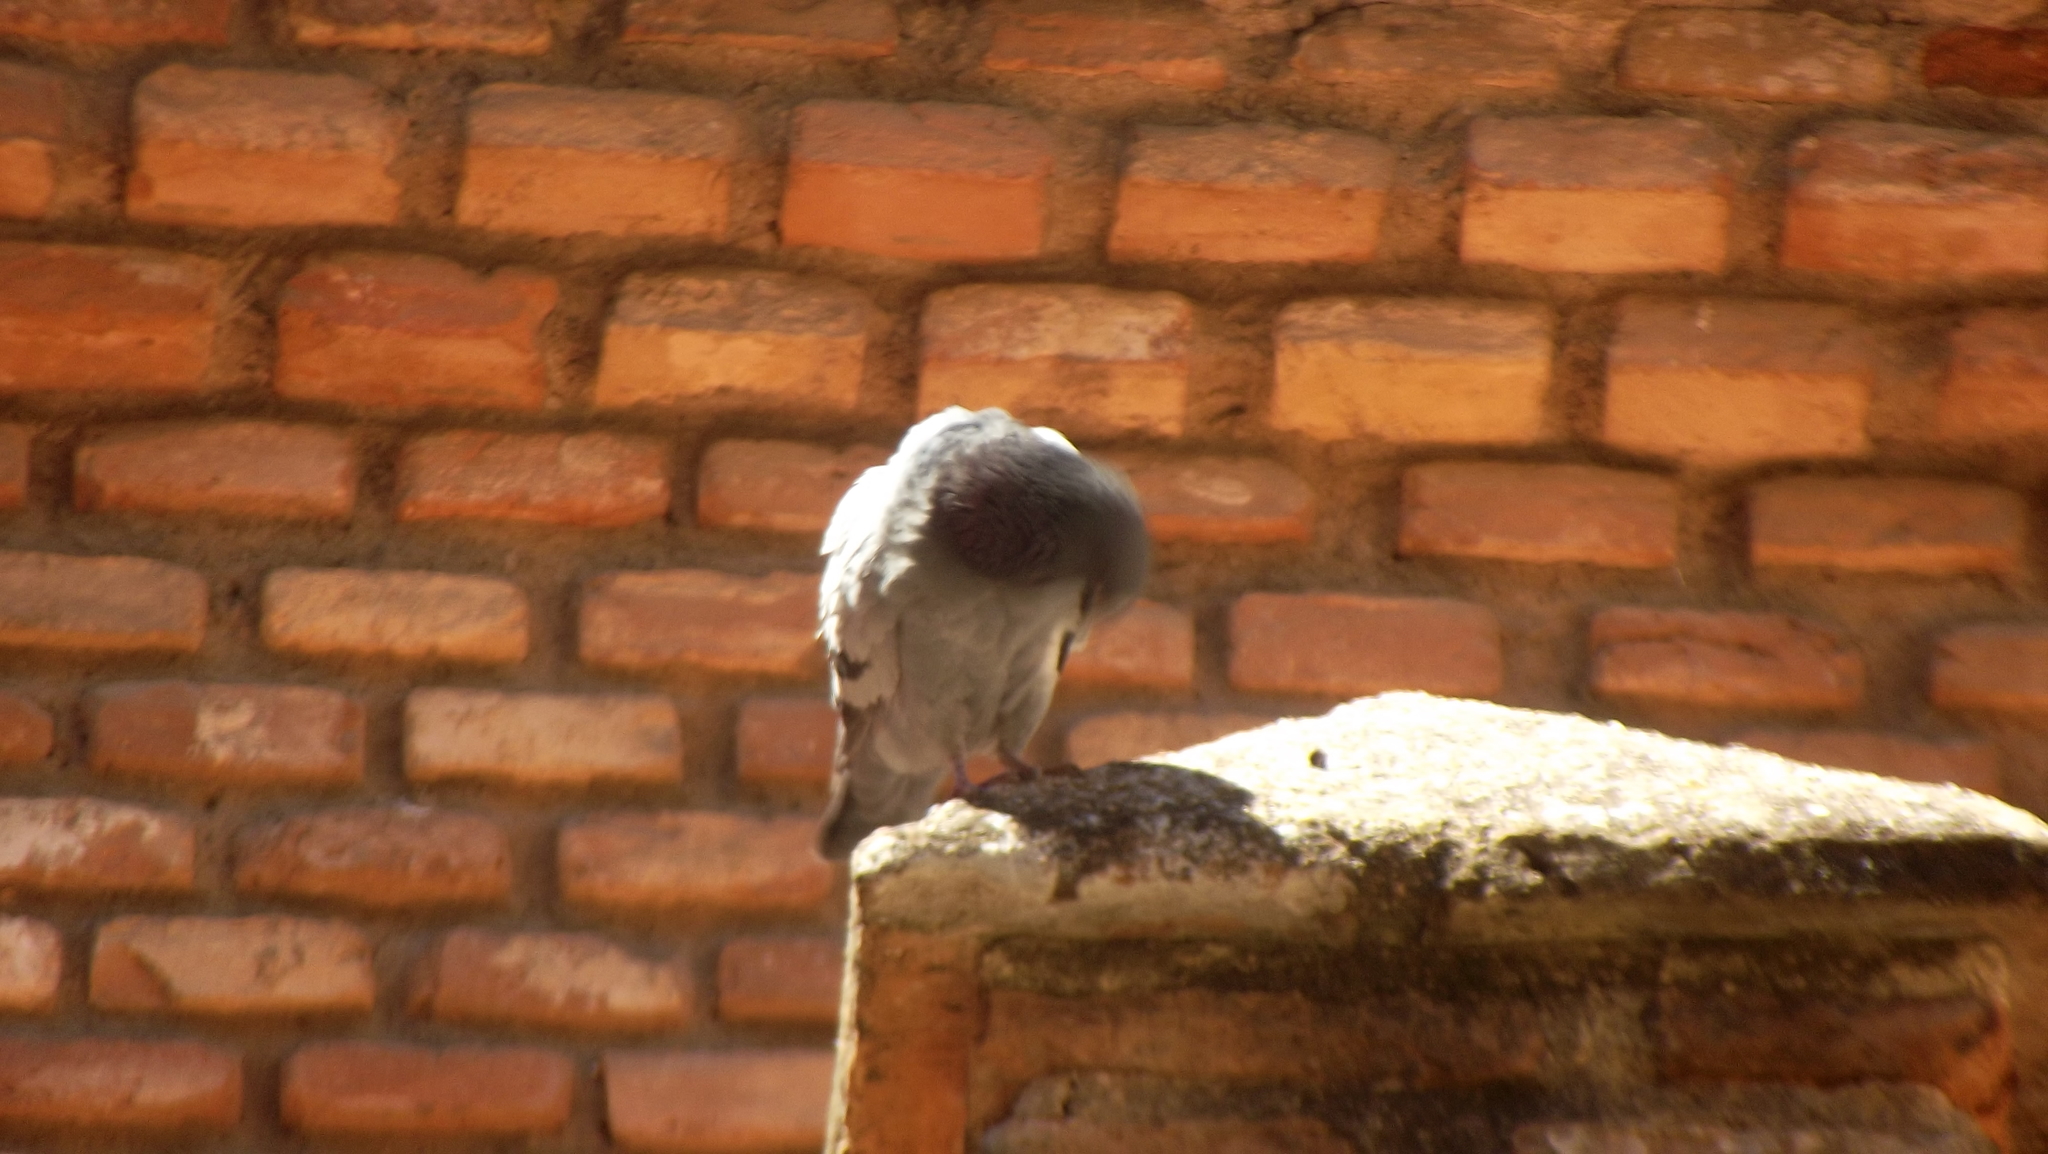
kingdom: Animalia
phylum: Chordata
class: Aves
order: Columbiformes
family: Columbidae
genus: Columba
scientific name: Columba livia
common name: Rock pigeon
